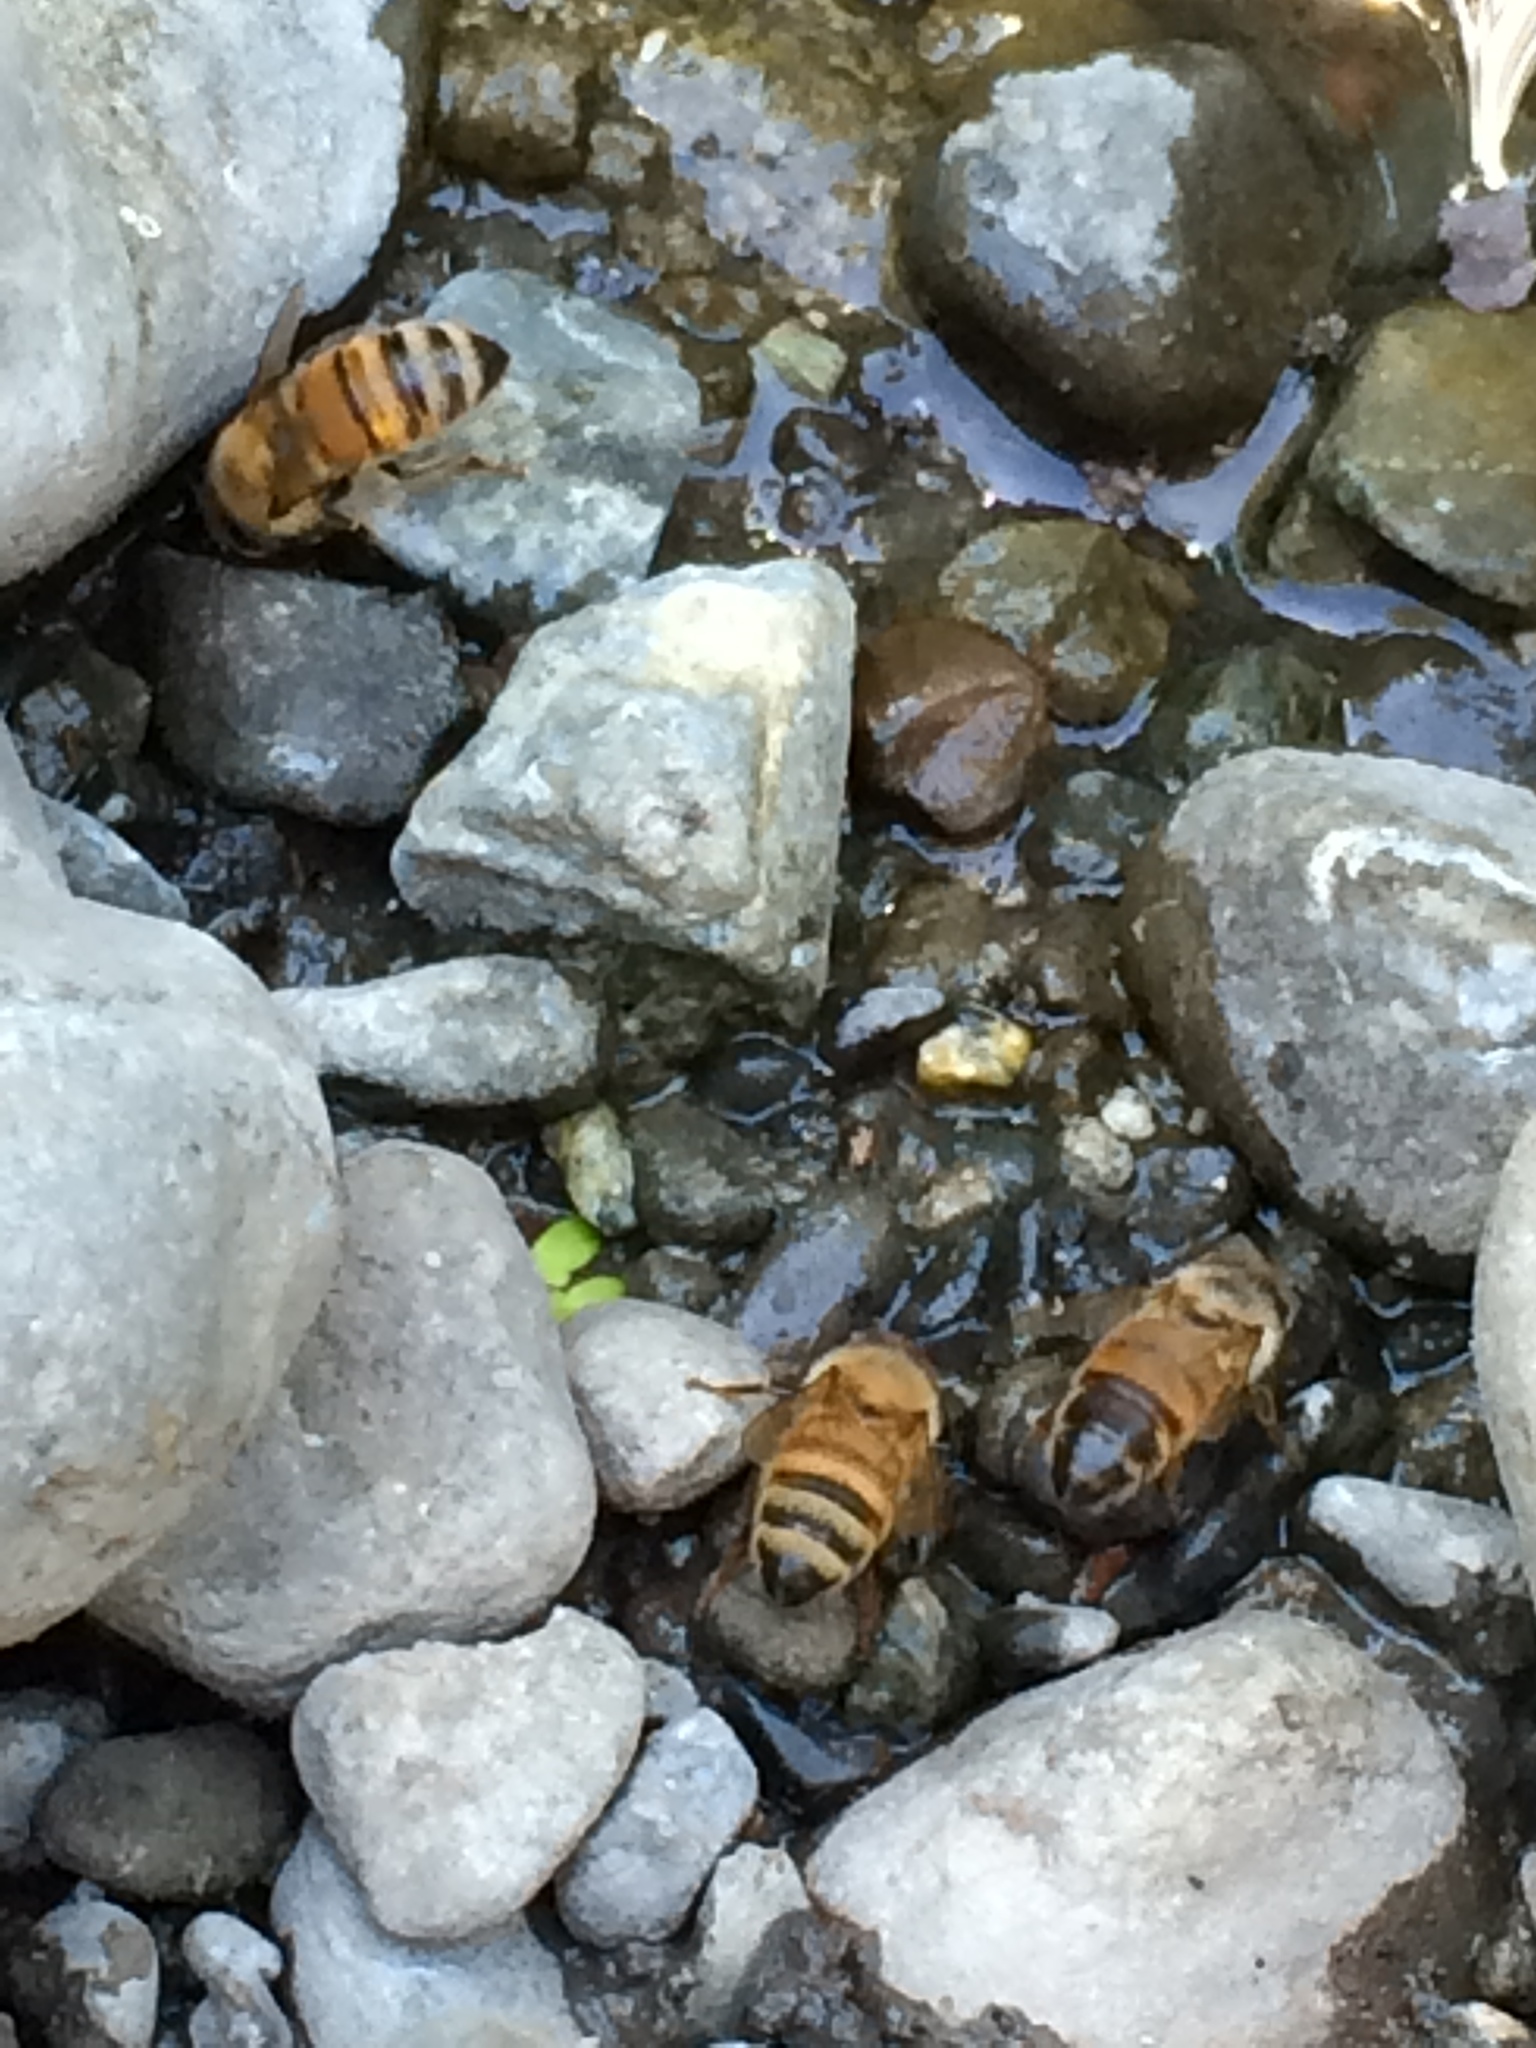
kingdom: Animalia
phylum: Arthropoda
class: Insecta
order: Hymenoptera
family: Apidae
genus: Apis
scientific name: Apis mellifera
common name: Honey bee
